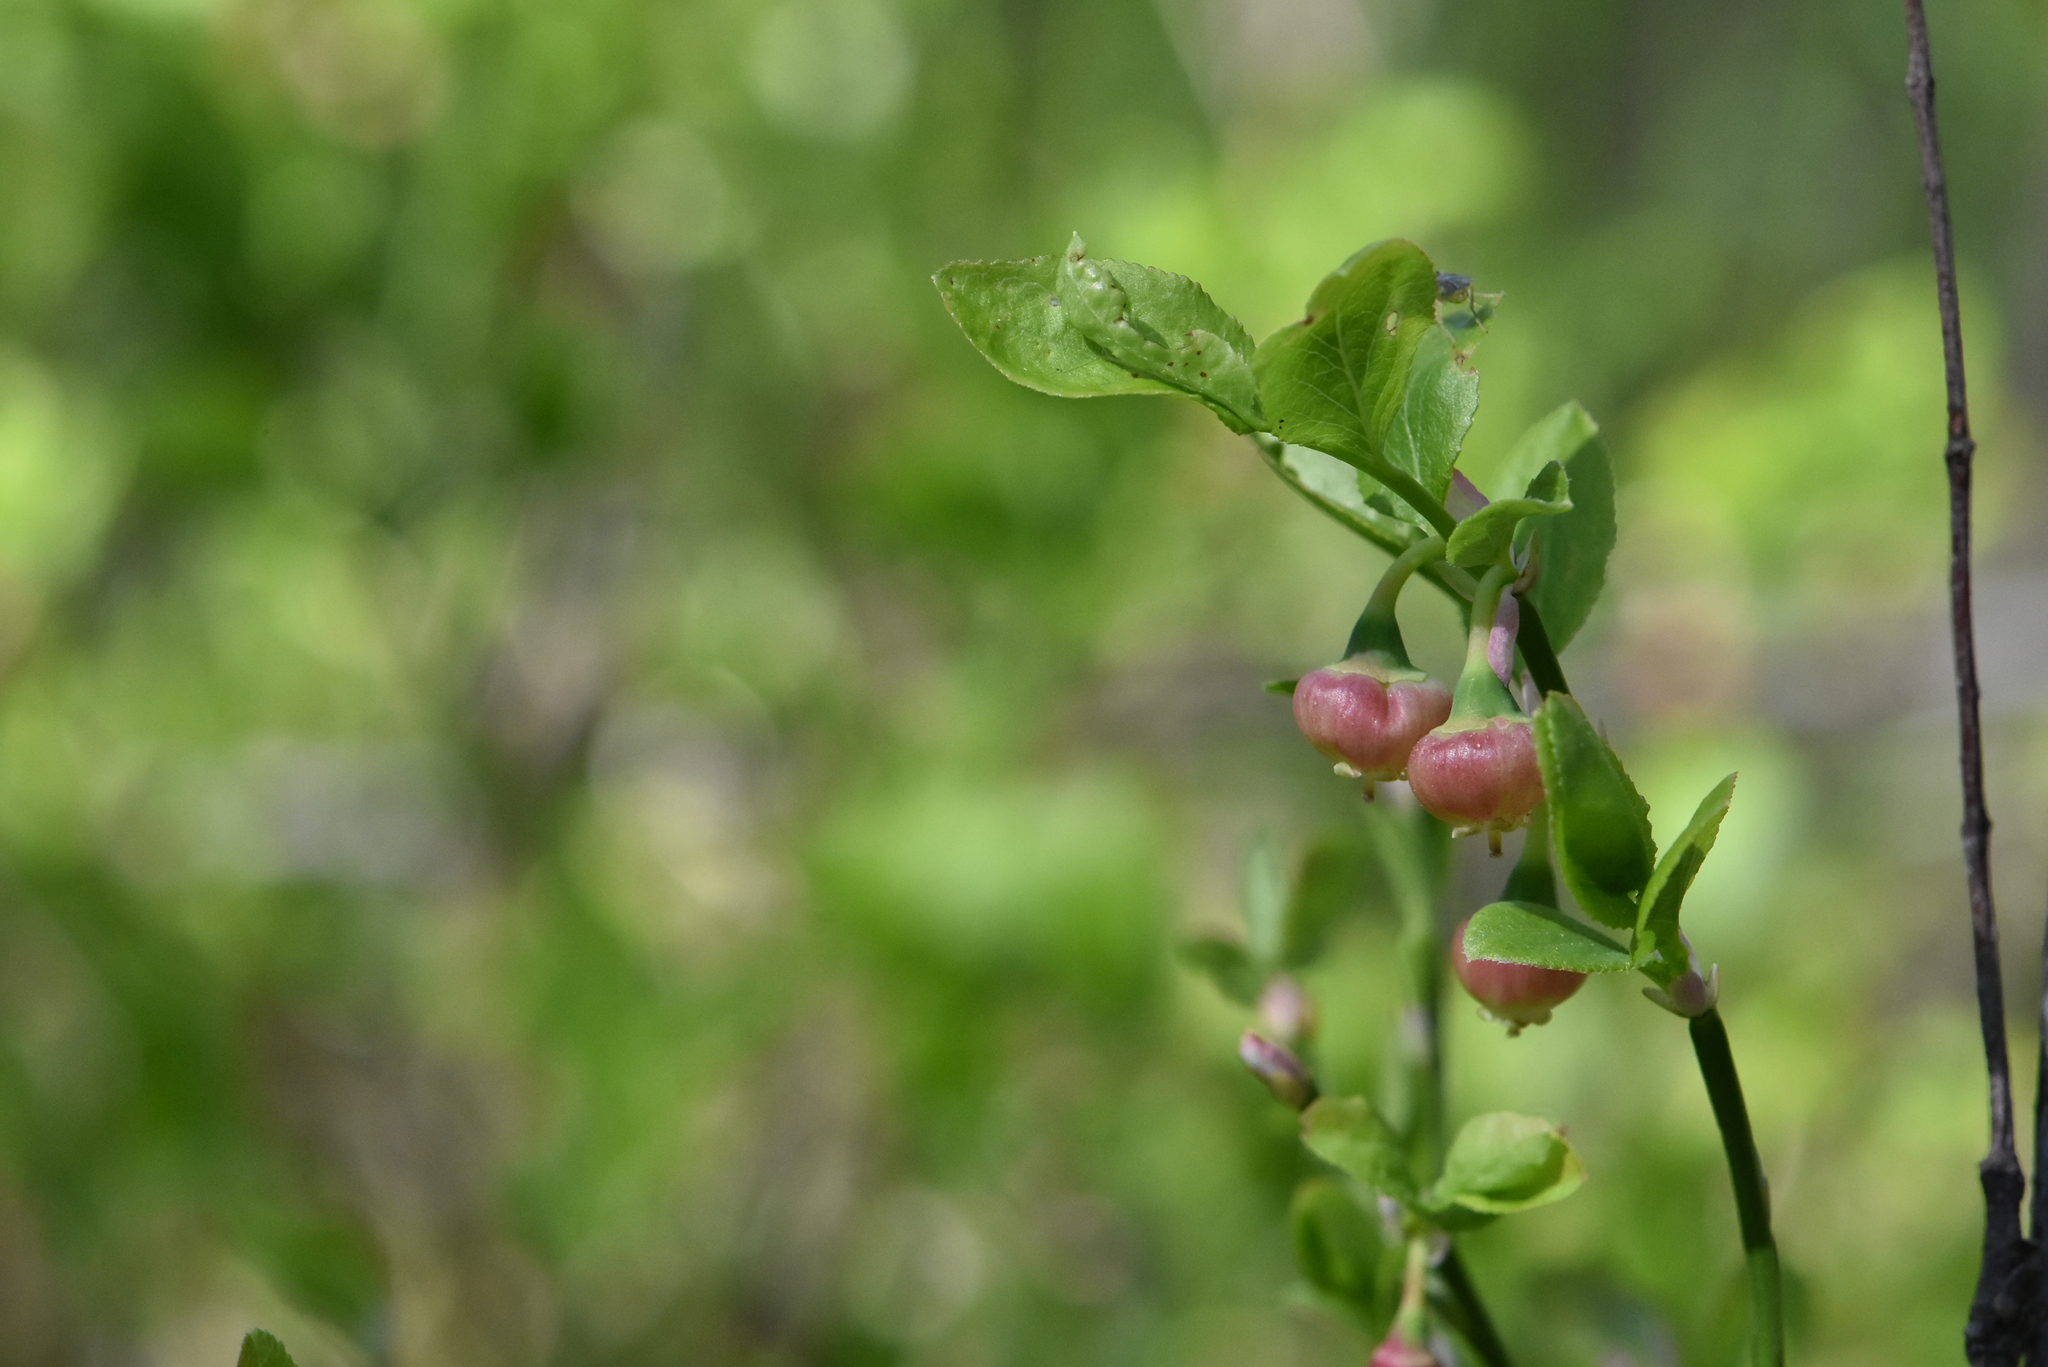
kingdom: Plantae
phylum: Tracheophyta
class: Magnoliopsida
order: Ericales
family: Ericaceae
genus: Vaccinium
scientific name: Vaccinium myrtillus
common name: Bilberry
